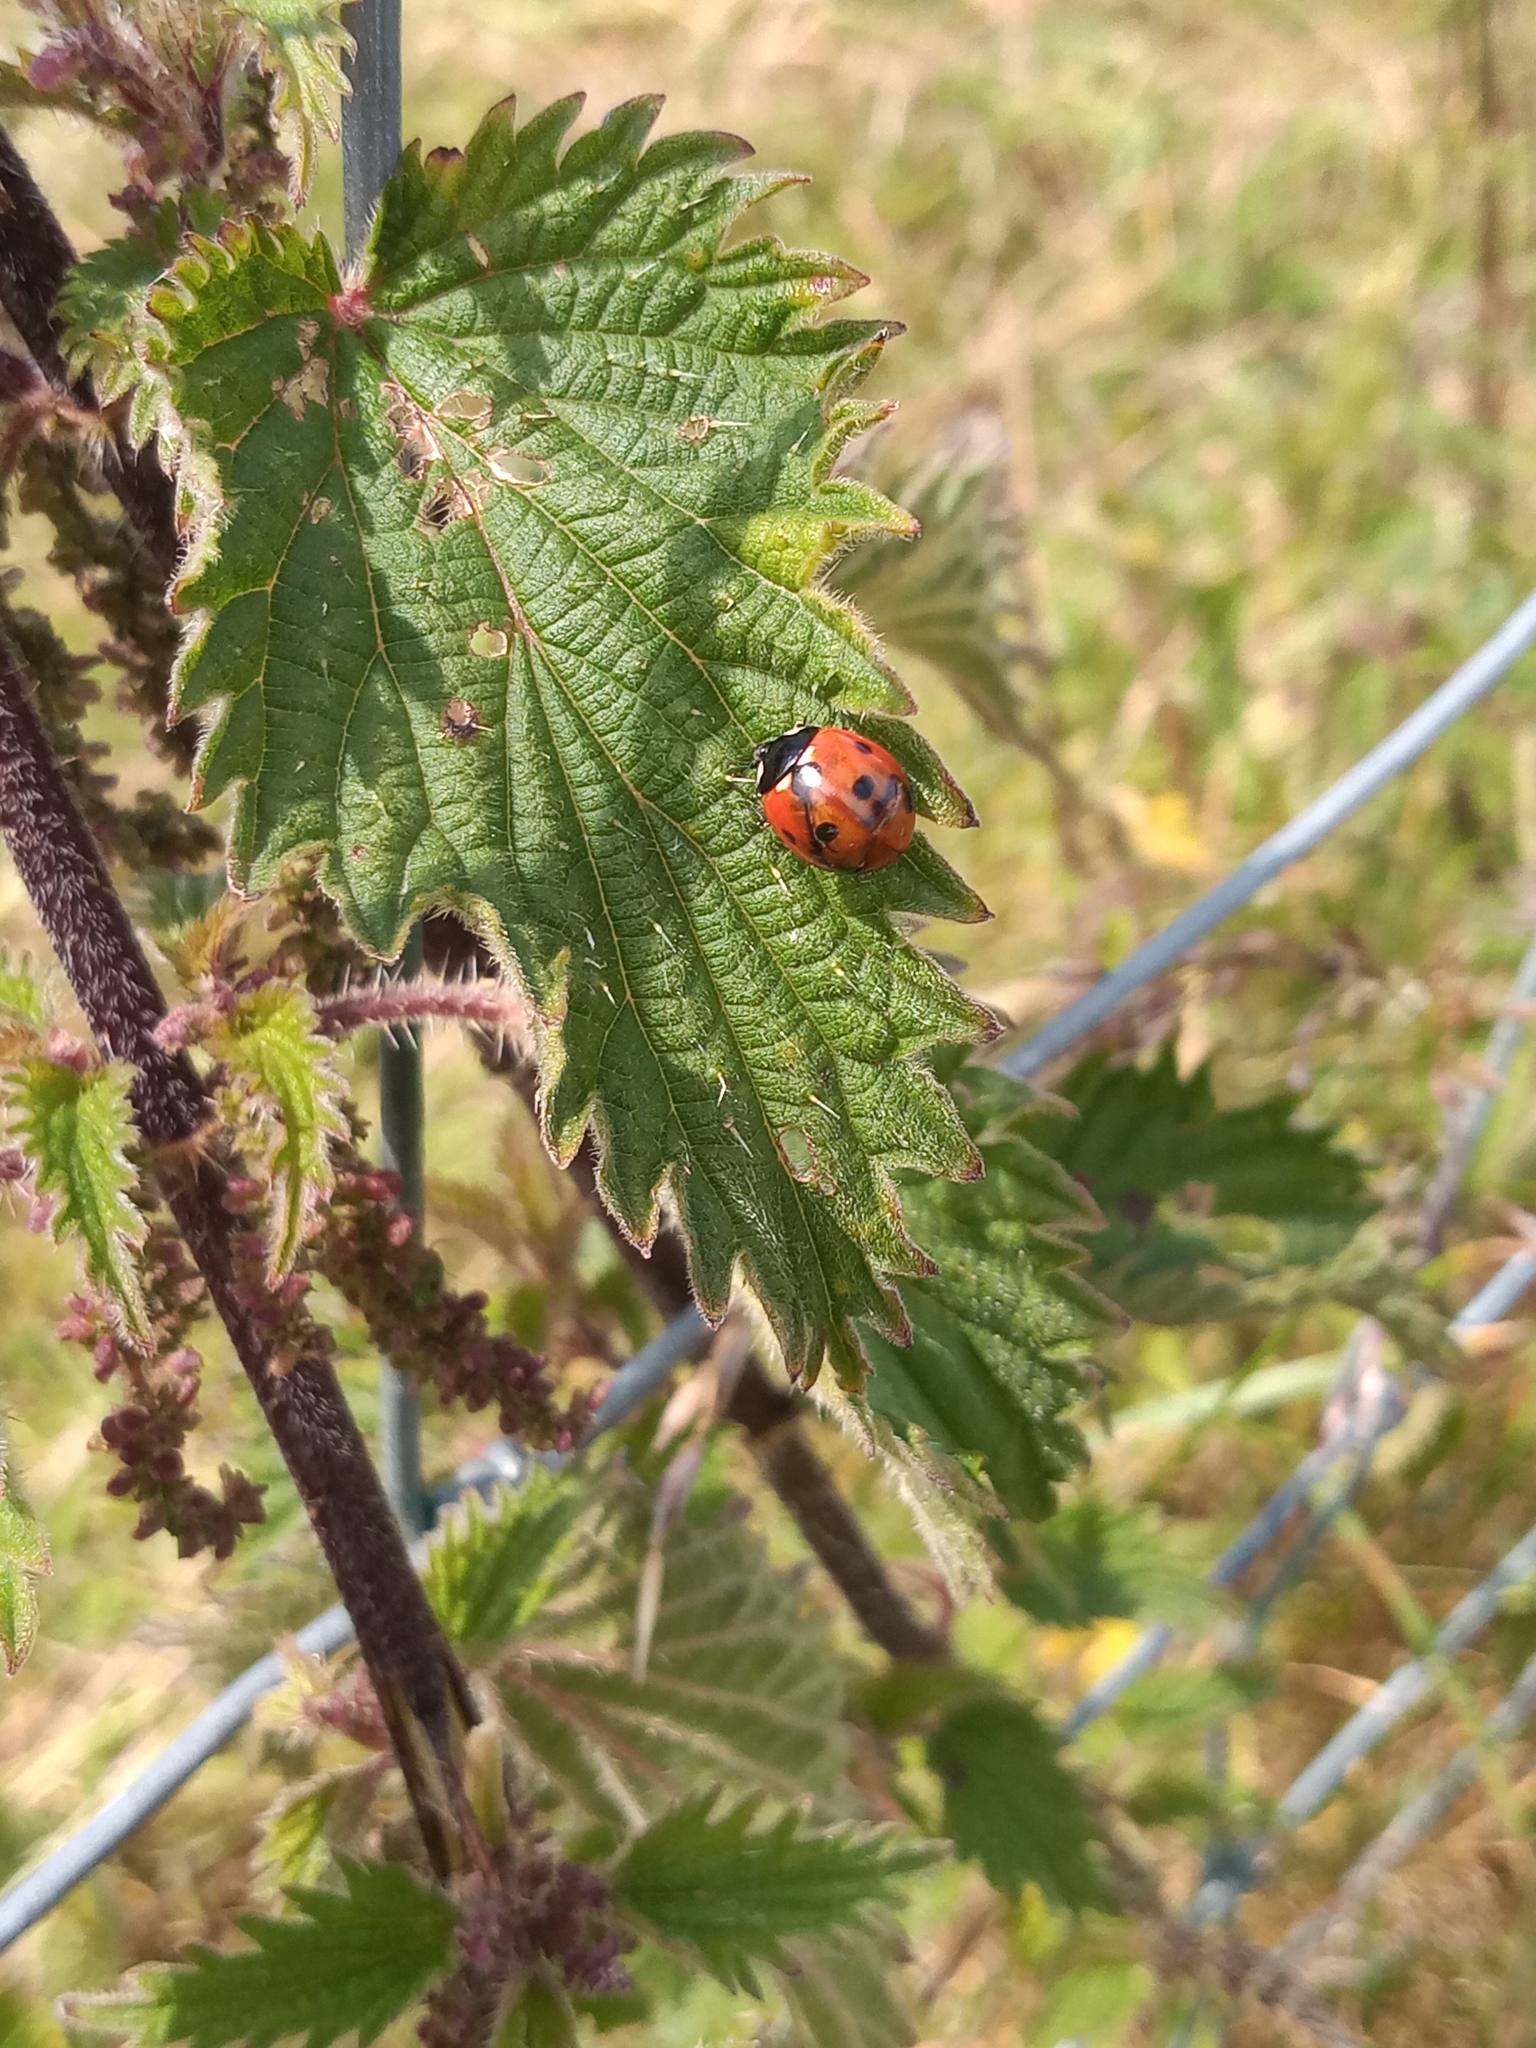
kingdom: Animalia
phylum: Arthropoda
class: Insecta
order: Coleoptera
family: Coccinellidae
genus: Coccinella
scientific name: Coccinella septempunctata
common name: Sevenspotted lady beetle
